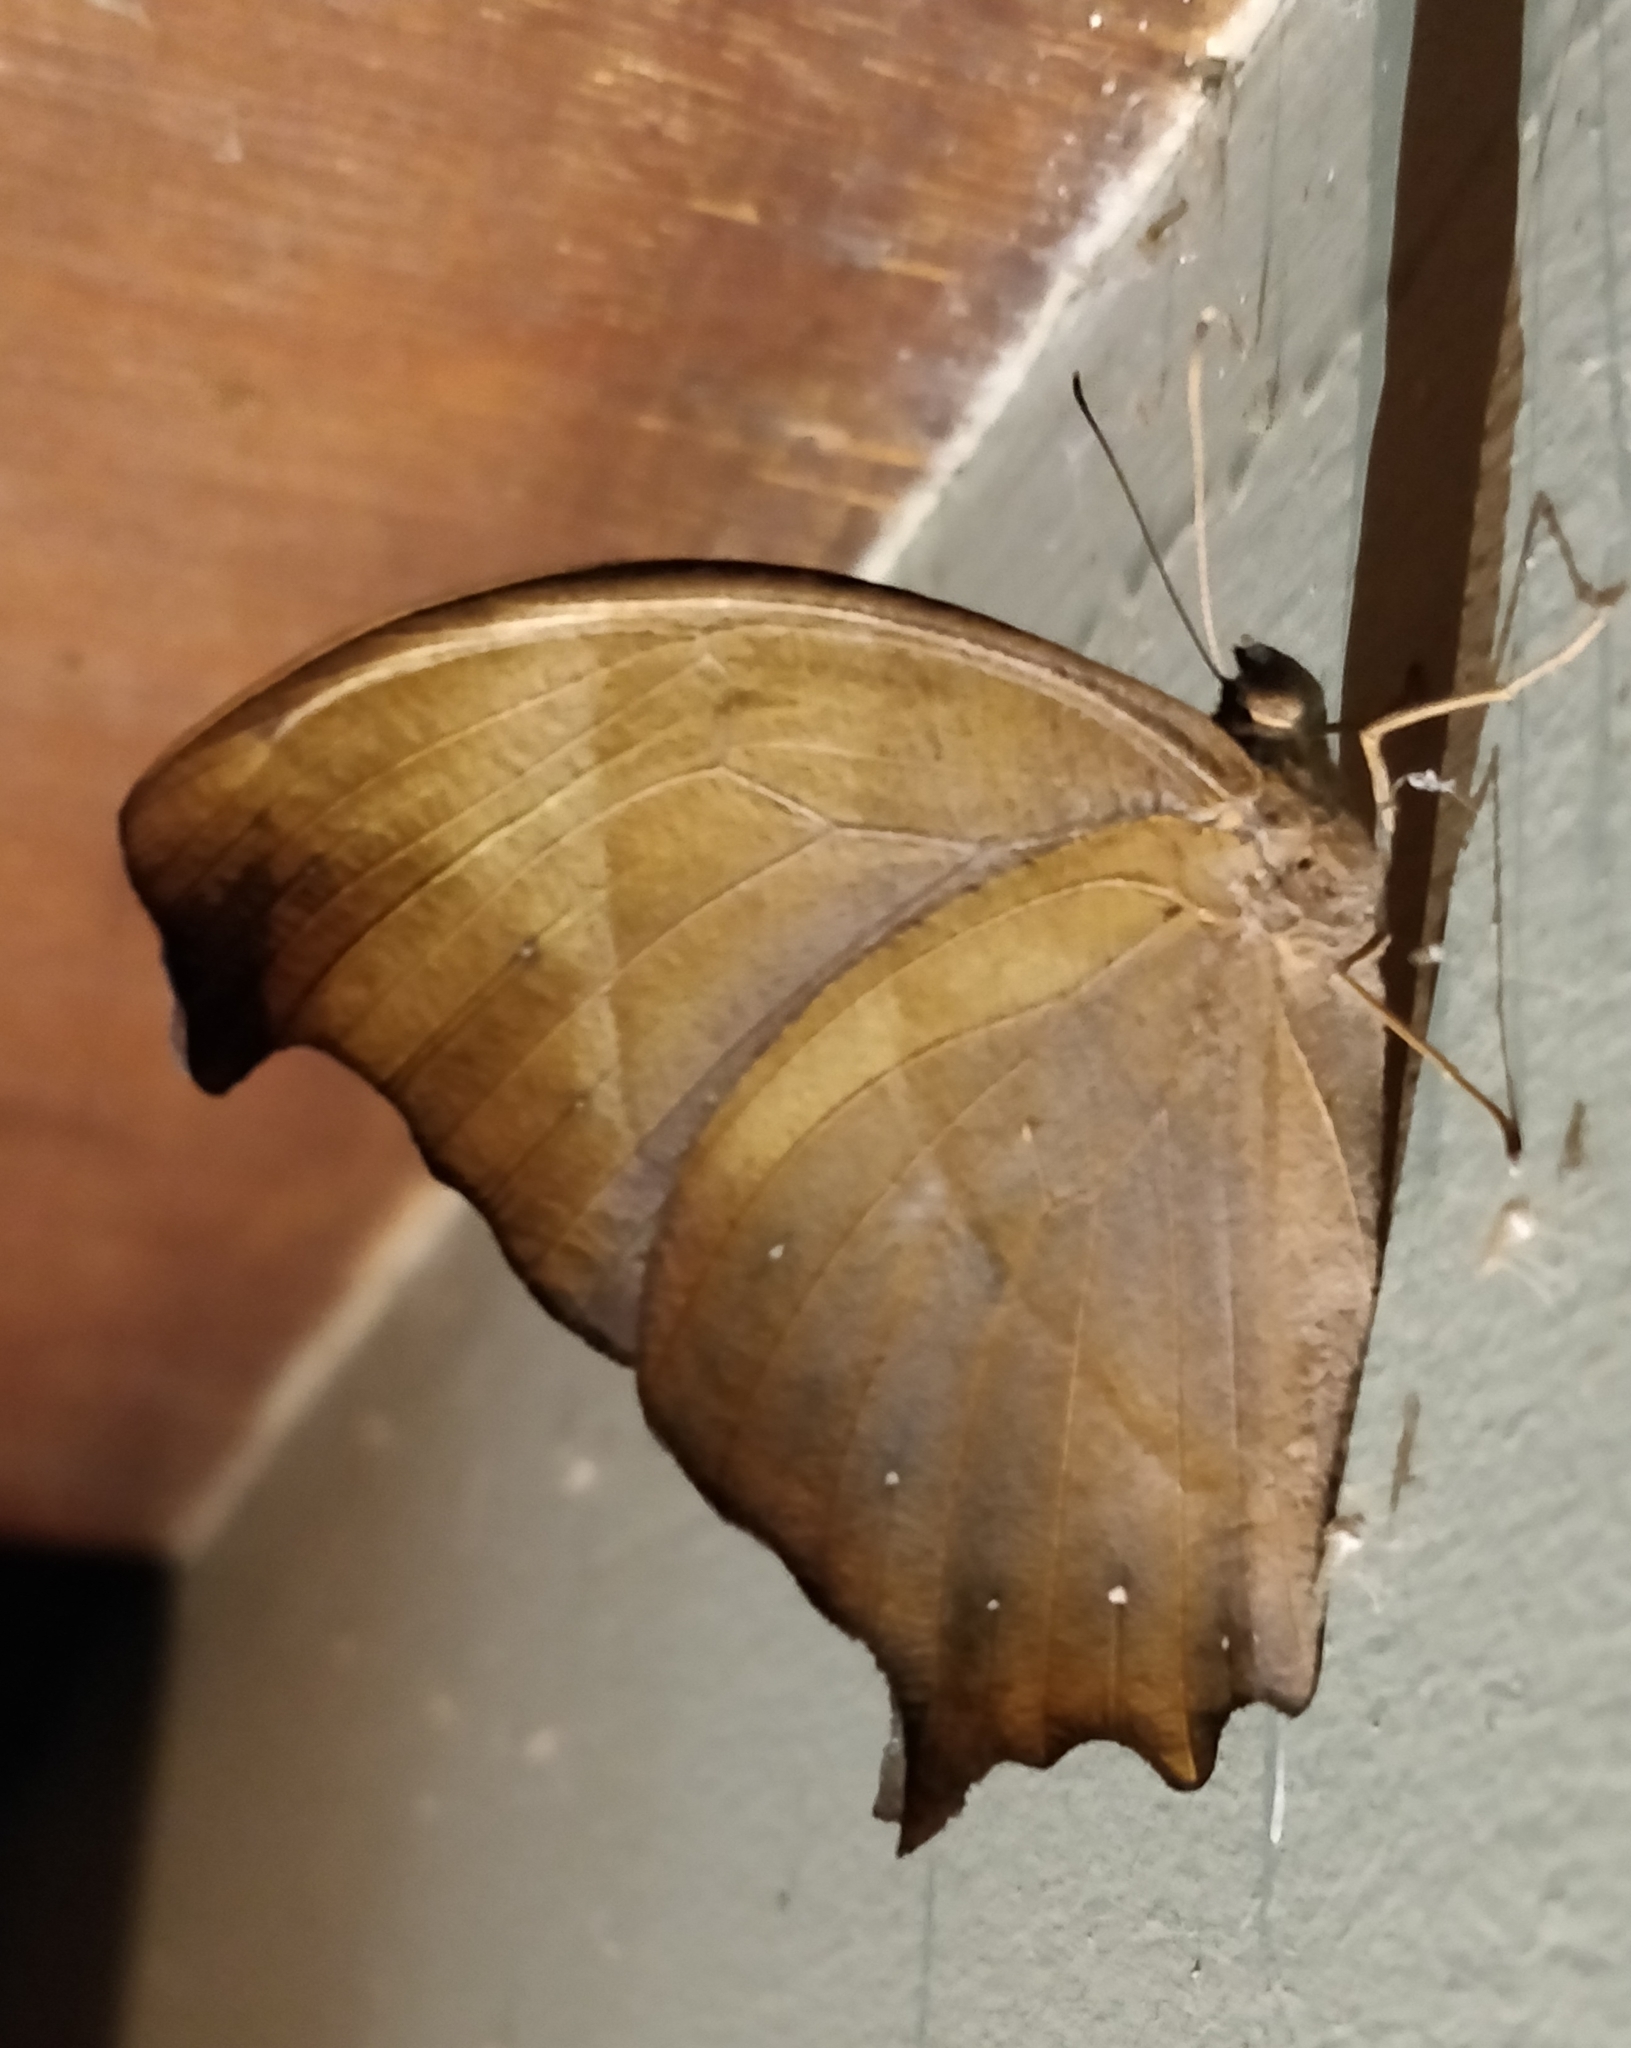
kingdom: Animalia
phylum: Arthropoda
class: Insecta
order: Lepidoptera
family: Nymphalidae
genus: Melanitis
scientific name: Melanitis phedima
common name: Dark evening brown
